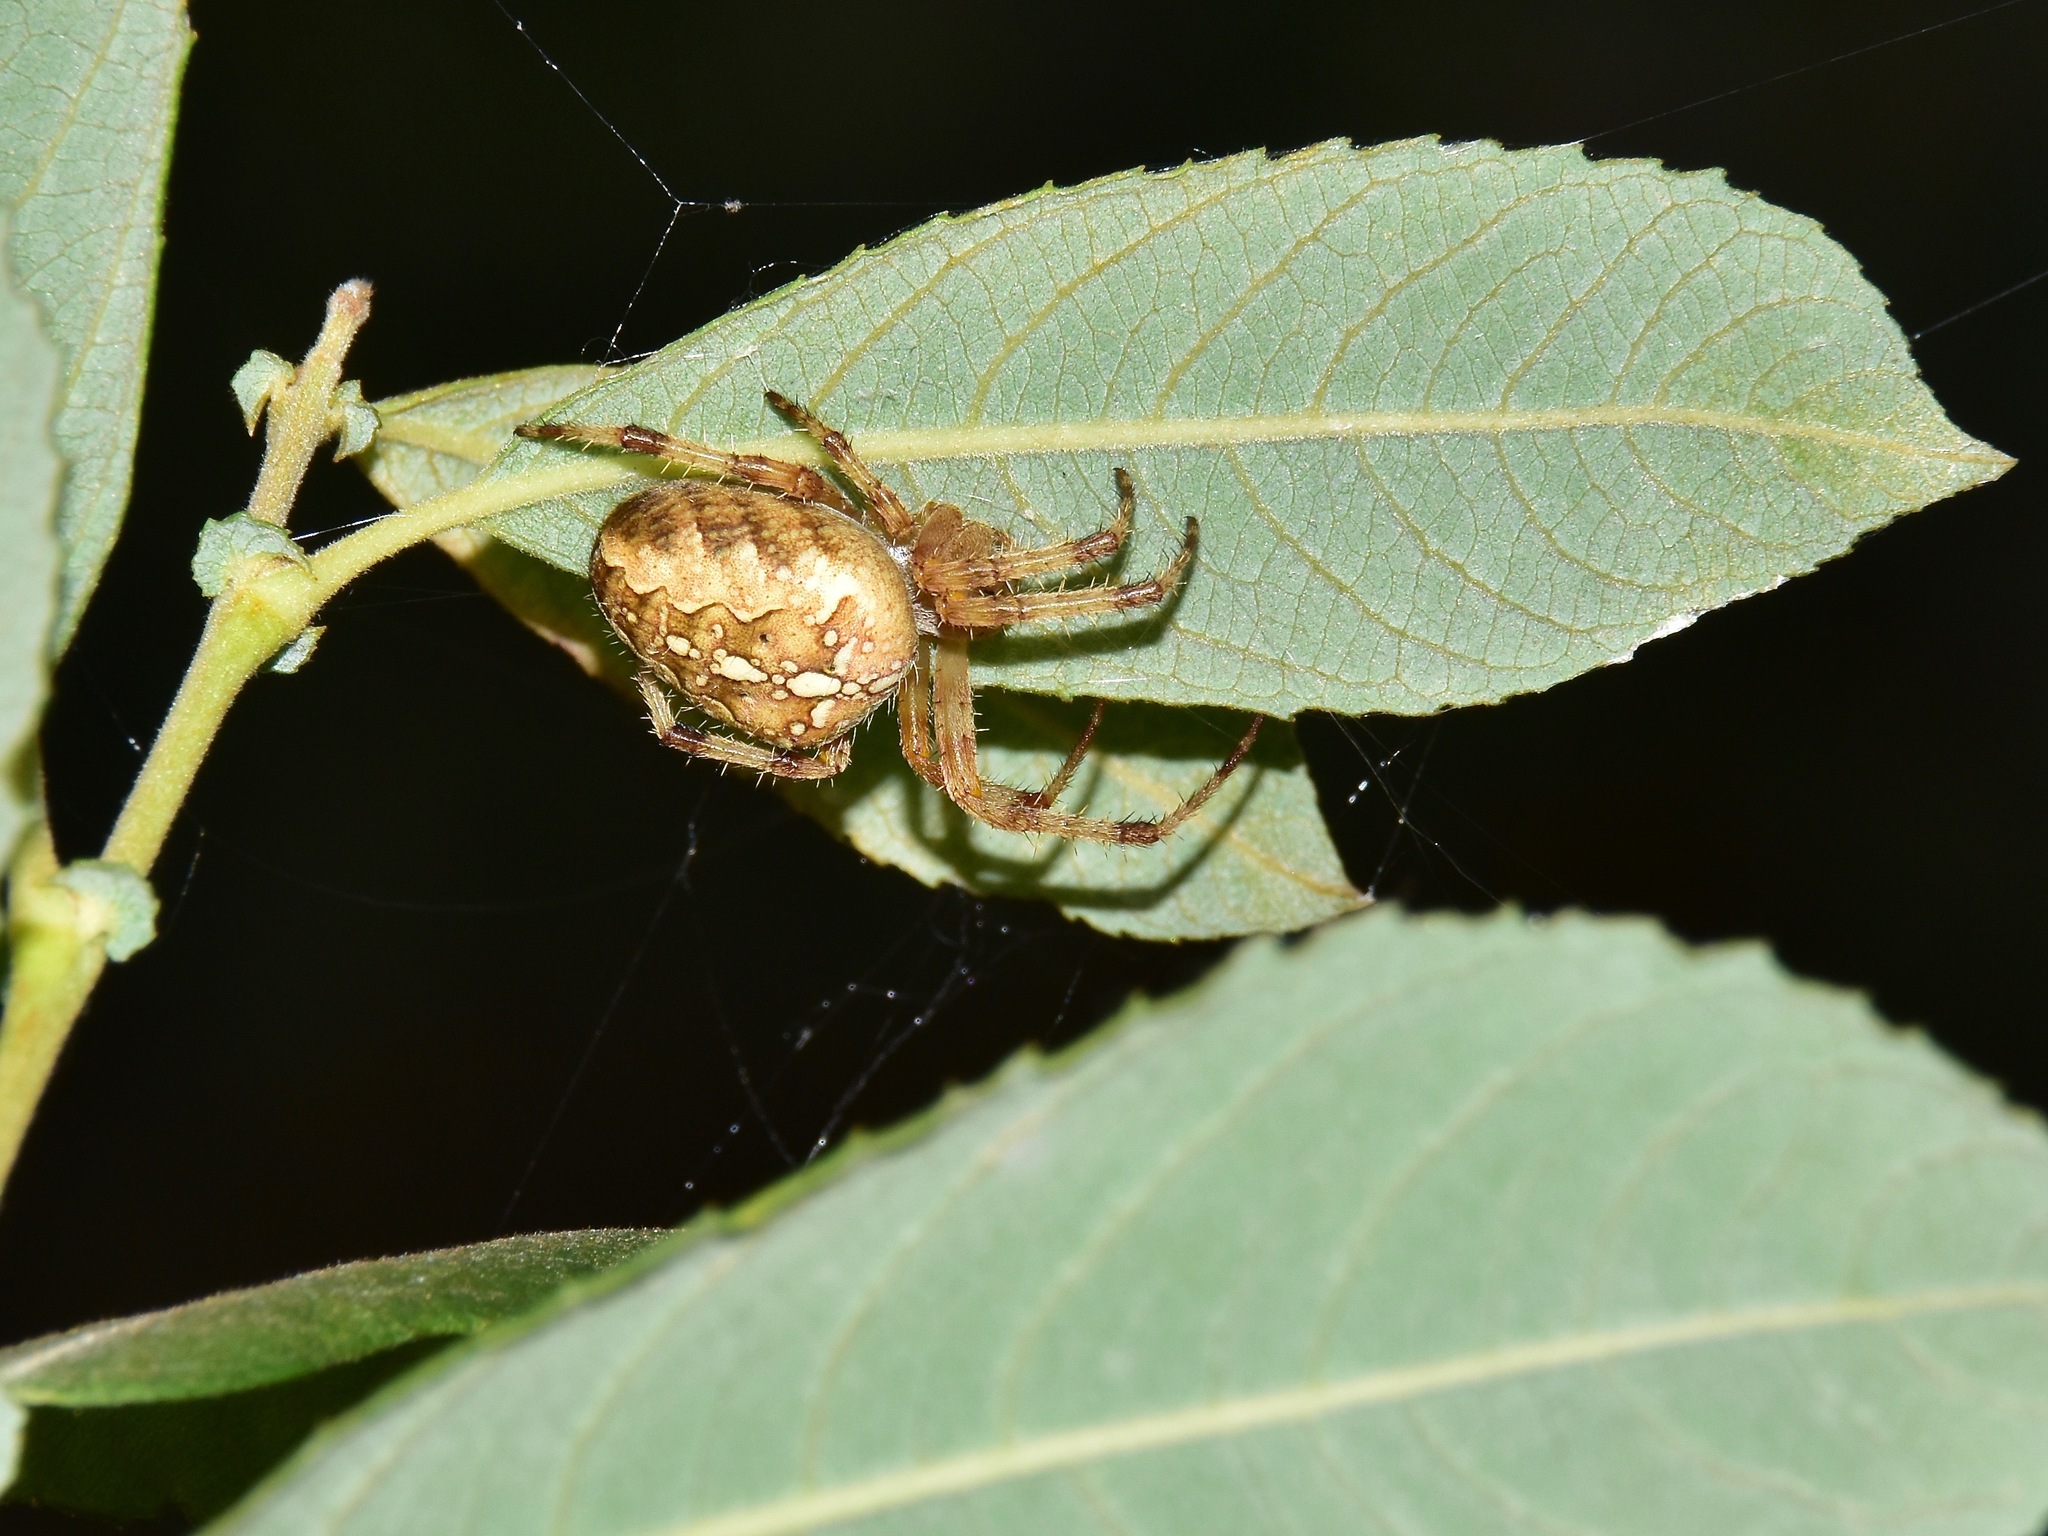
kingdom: Animalia
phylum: Arthropoda
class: Arachnida
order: Araneae
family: Araneidae
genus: Araneus
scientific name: Araneus diadematus
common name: Cross orbweaver
